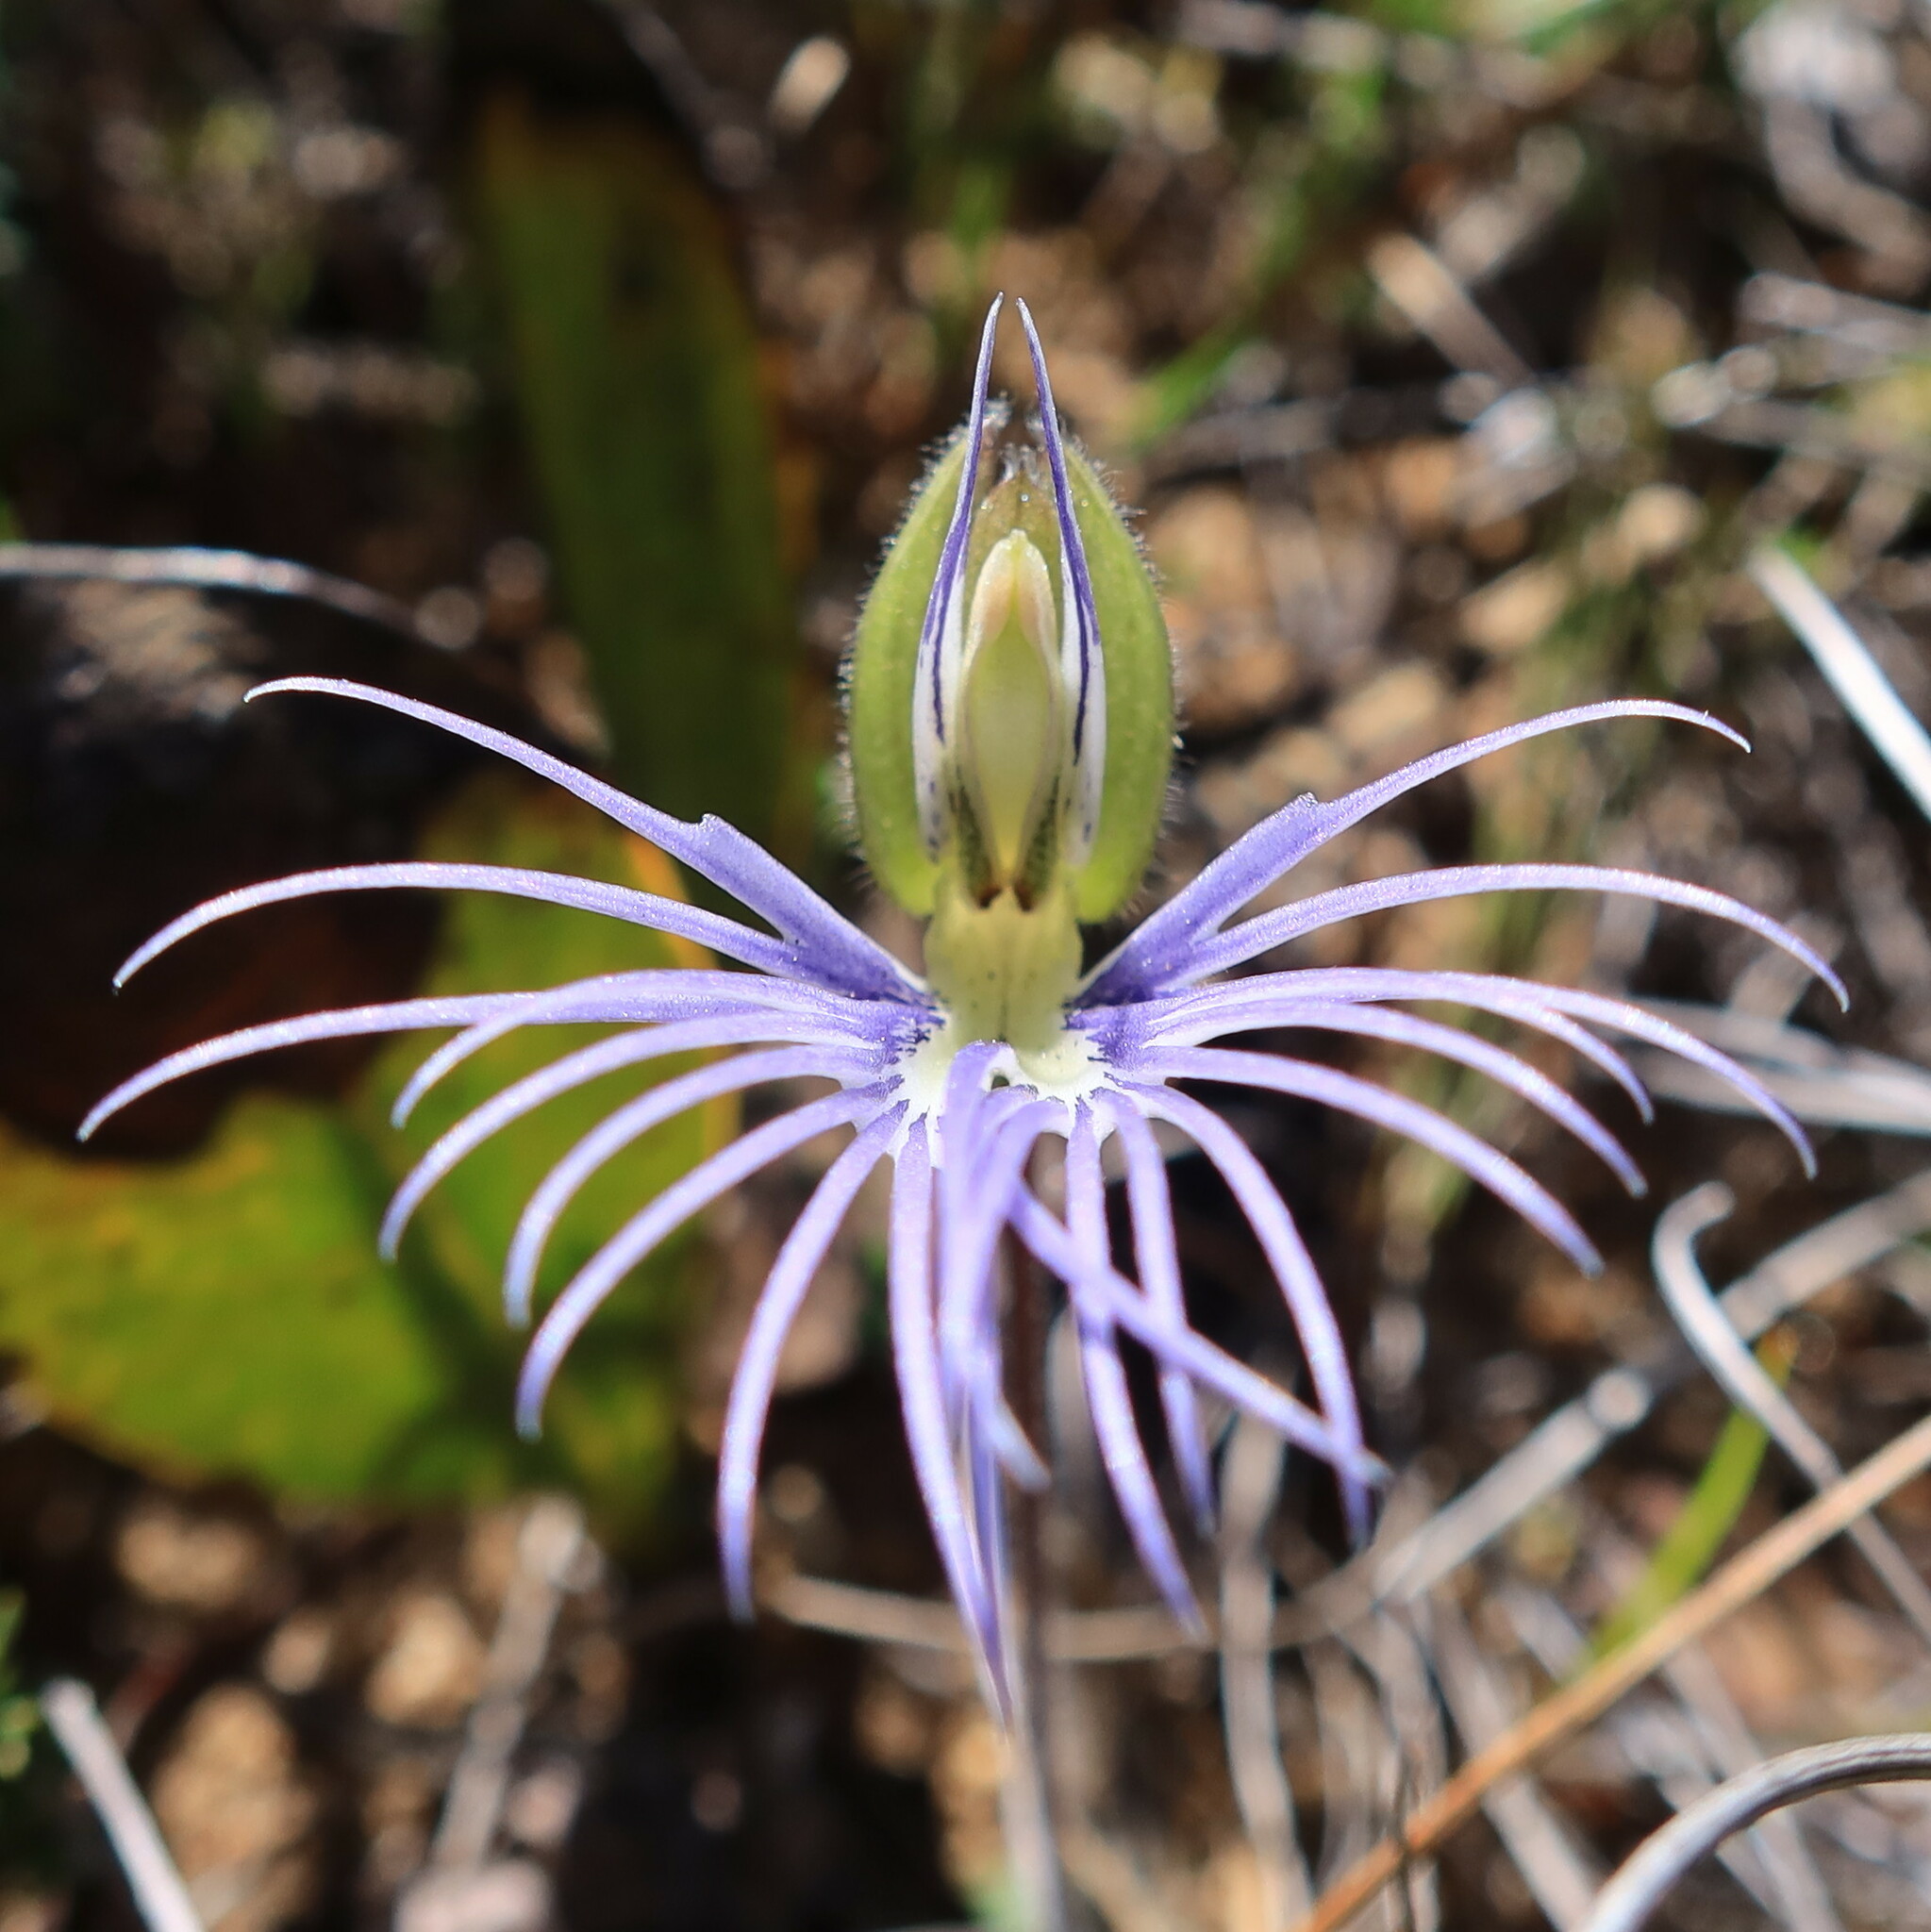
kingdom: Plantae
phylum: Tracheophyta
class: Liliopsida
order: Asparagales
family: Orchidaceae
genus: Holothrix
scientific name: Holothrix burmanniana
